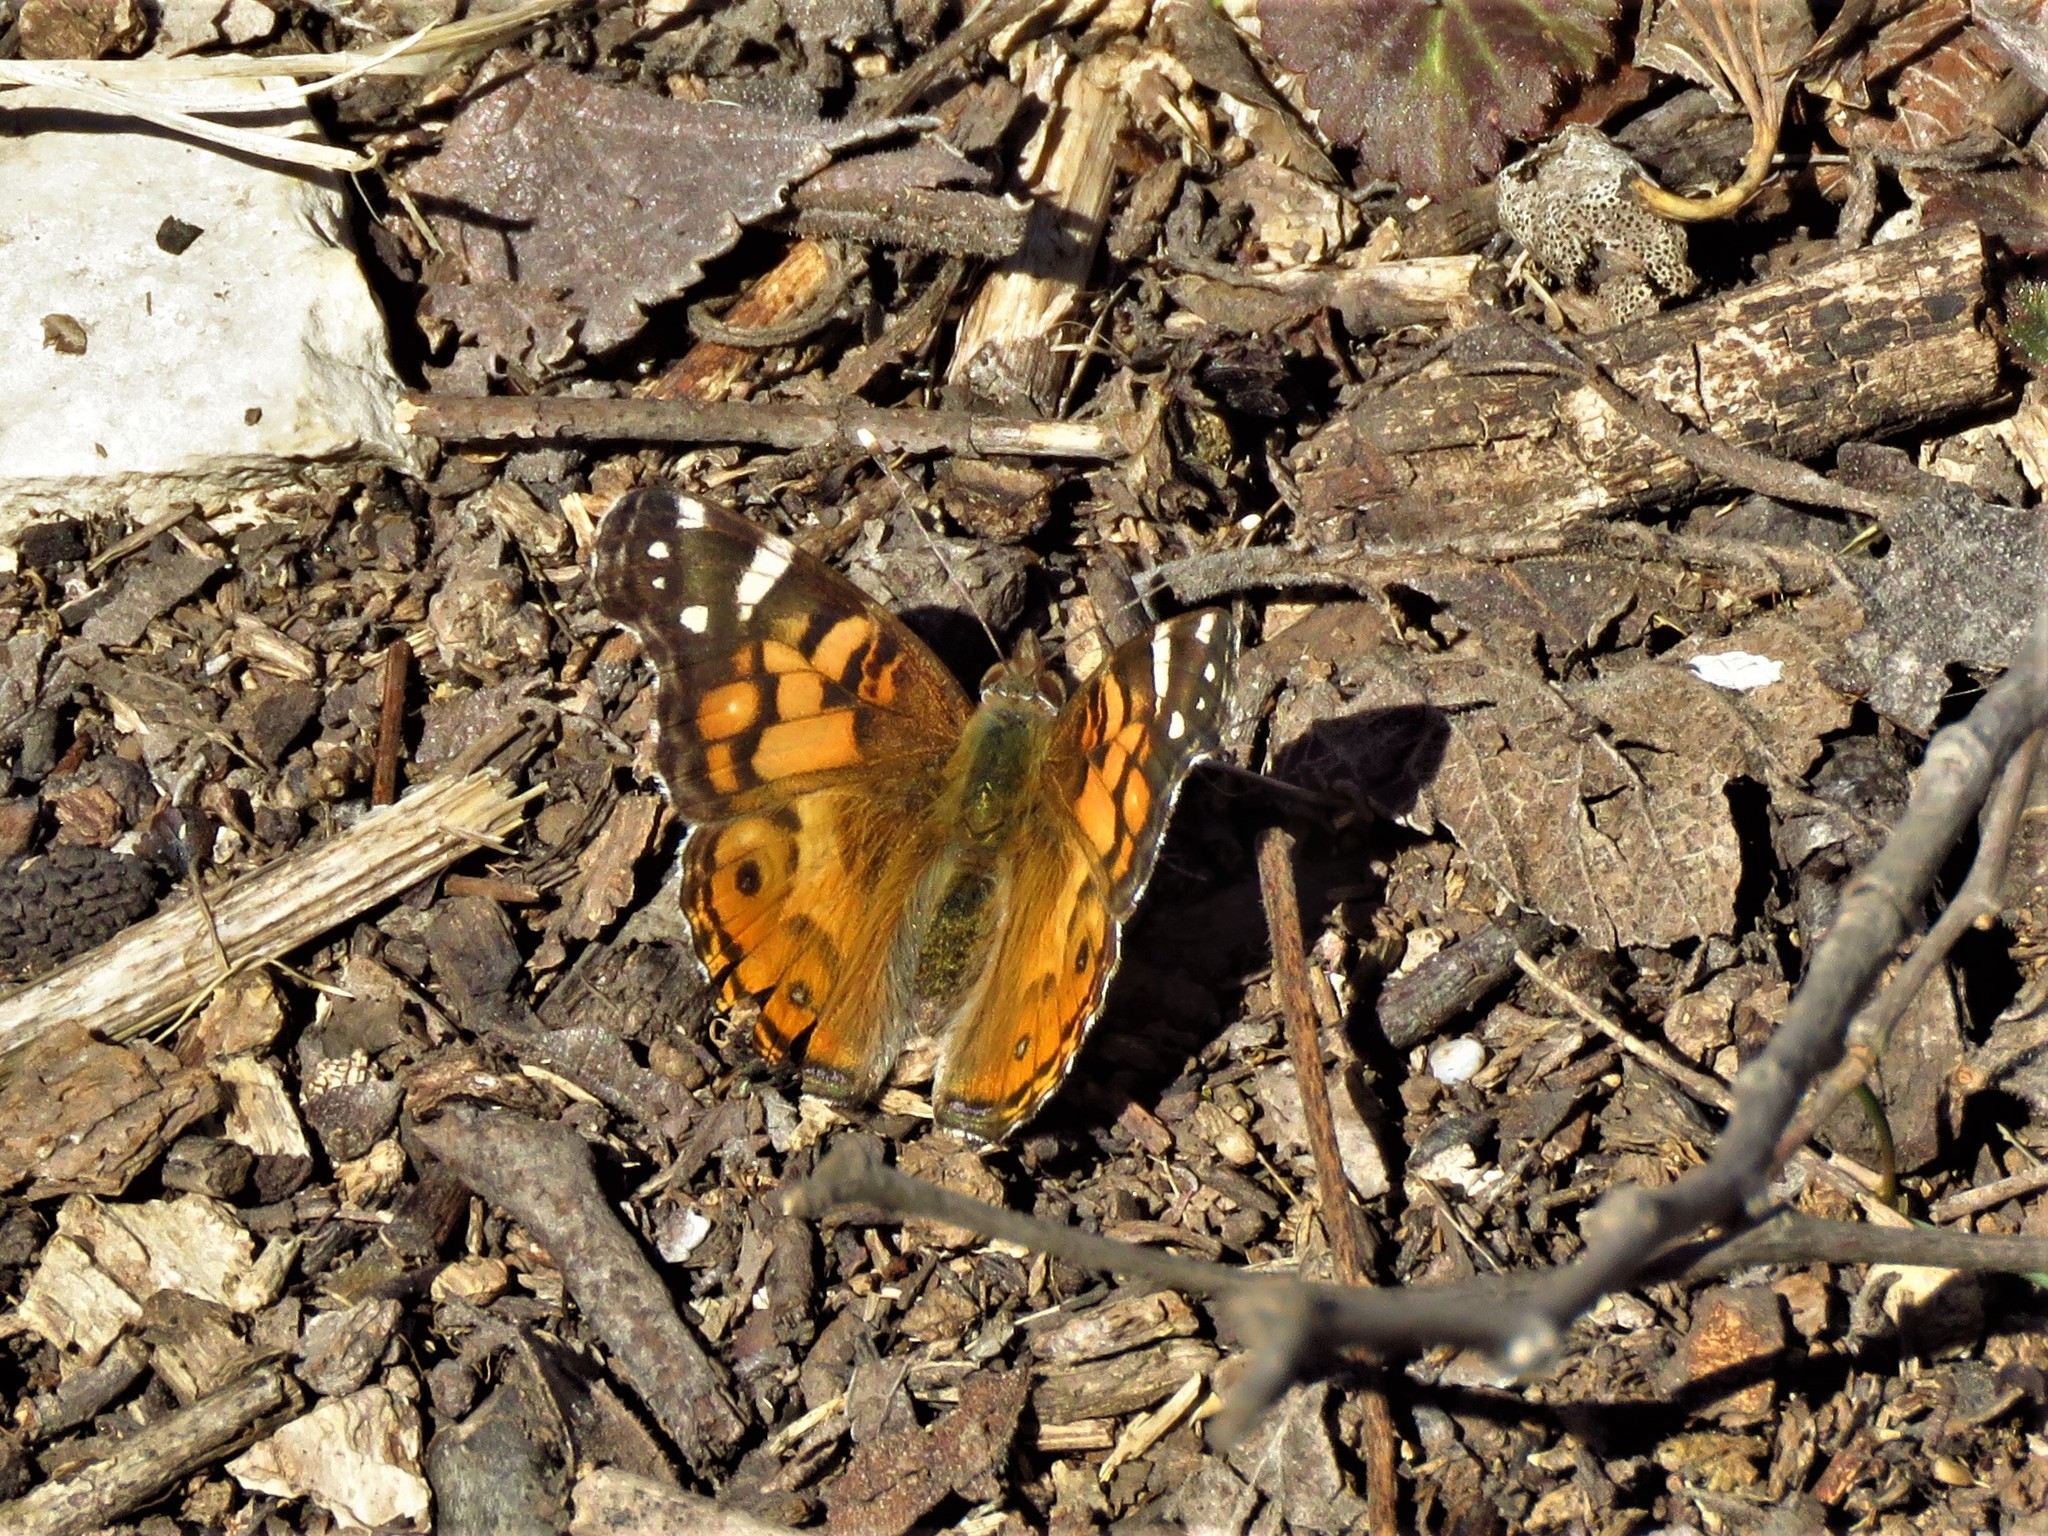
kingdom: Animalia
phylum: Arthropoda
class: Insecta
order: Lepidoptera
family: Nymphalidae
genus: Vanessa
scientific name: Vanessa virginiensis
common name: American lady
